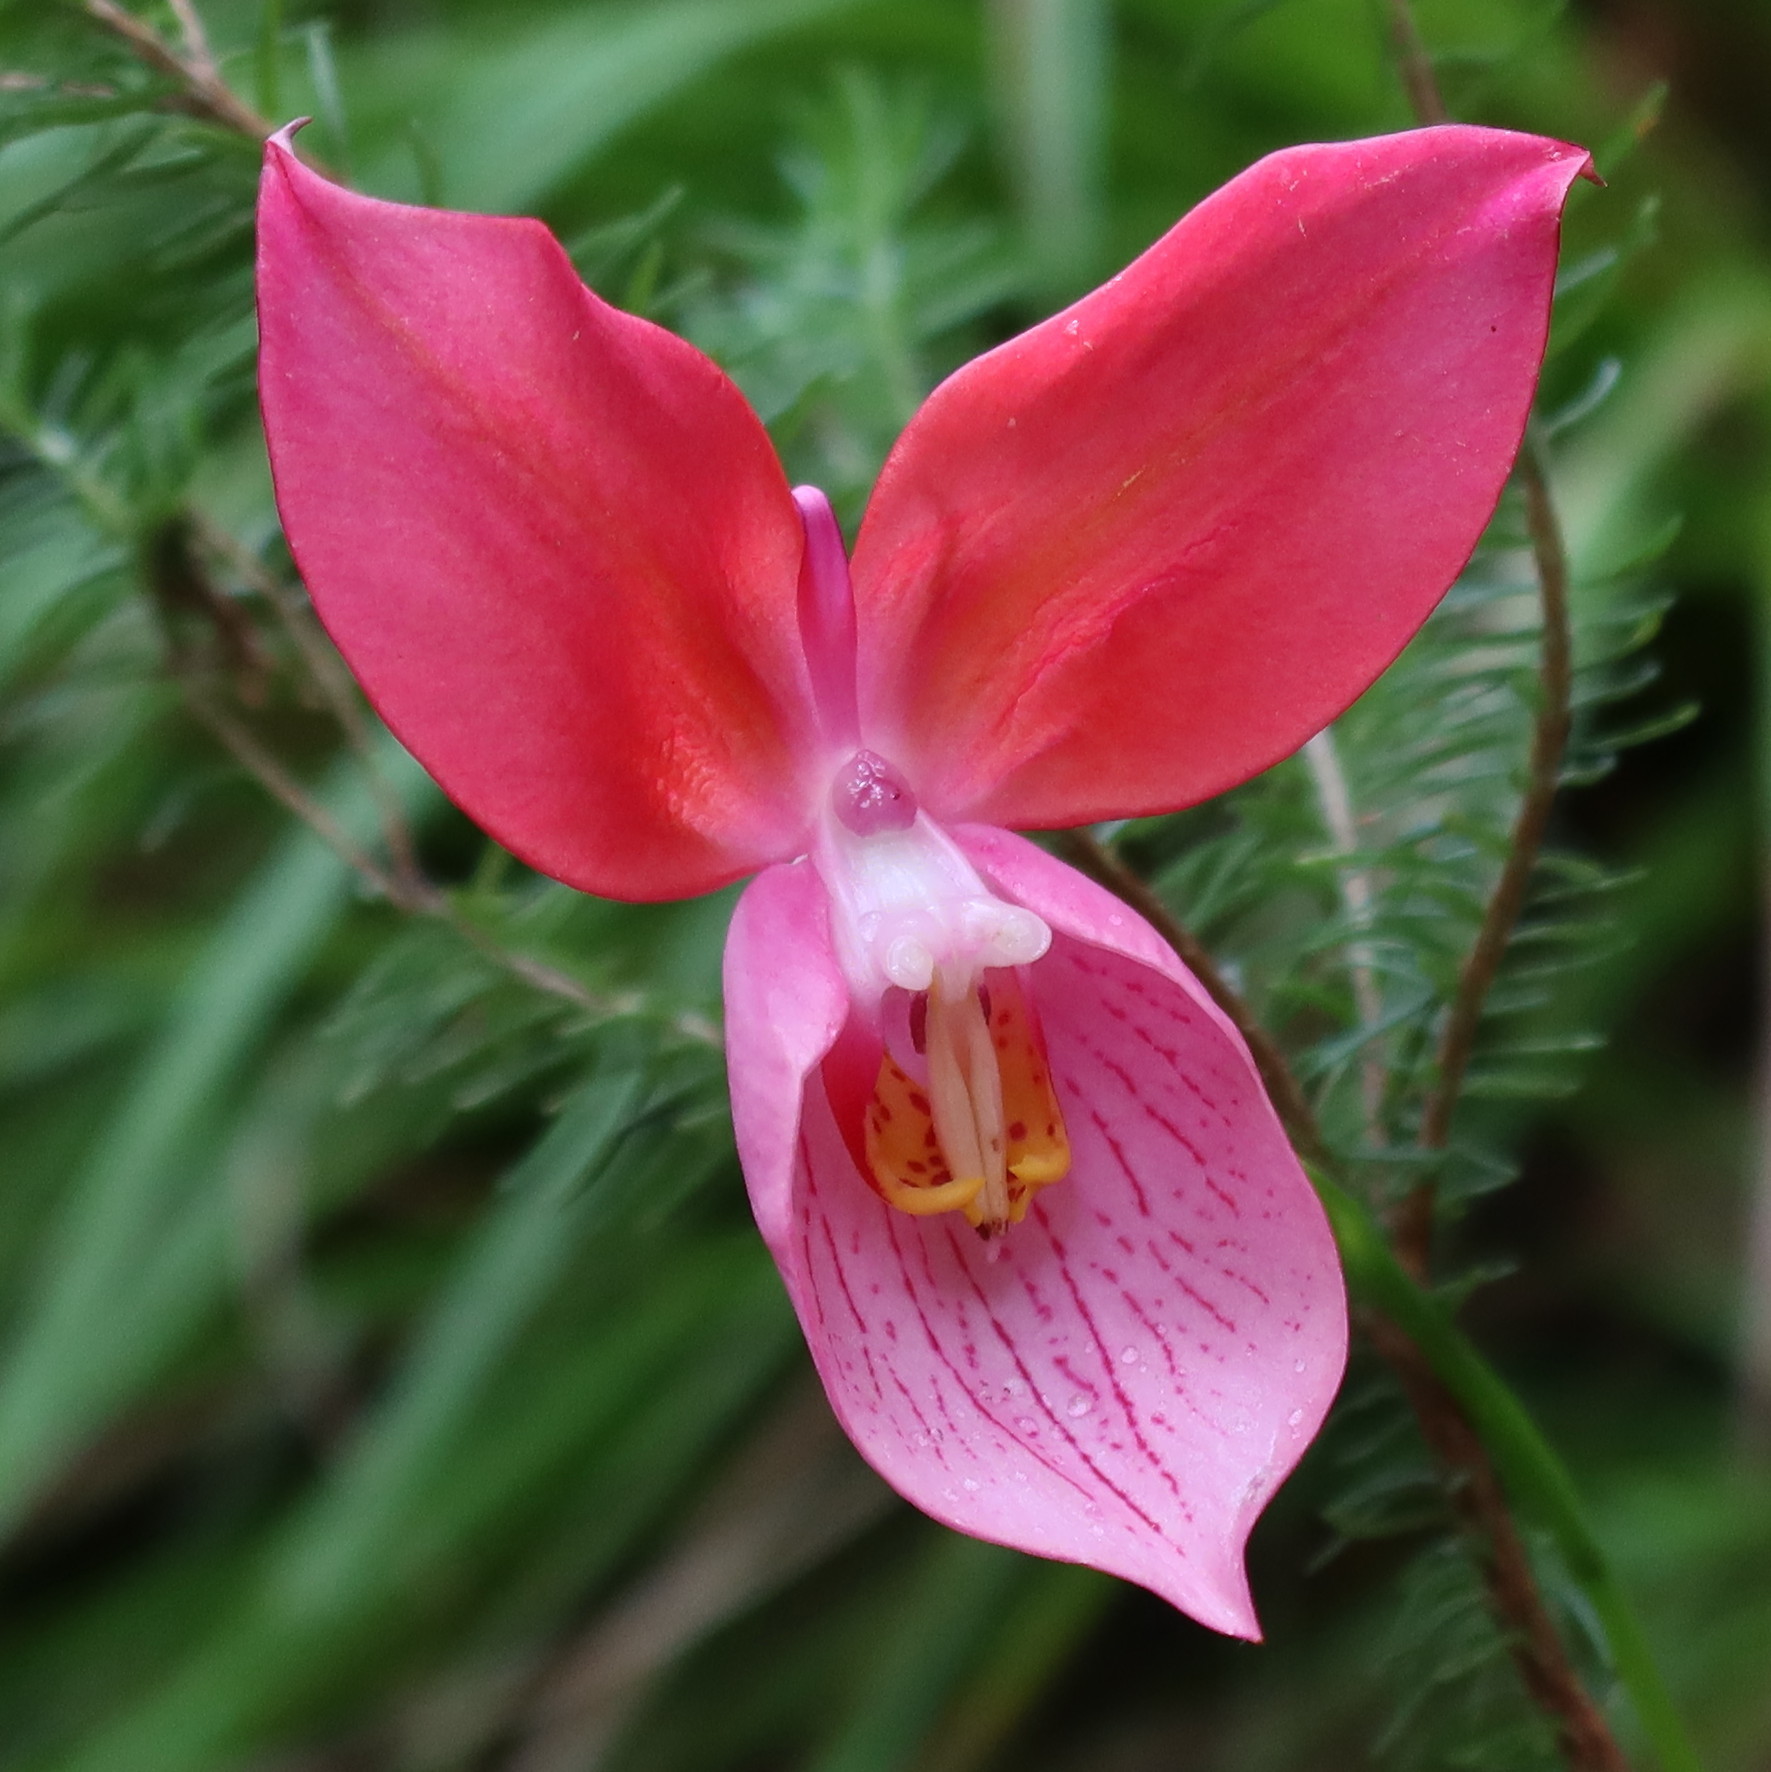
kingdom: Plantae
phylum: Tracheophyta
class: Liliopsida
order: Asparagales
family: Orchidaceae
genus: Disa
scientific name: Disa uniflora
